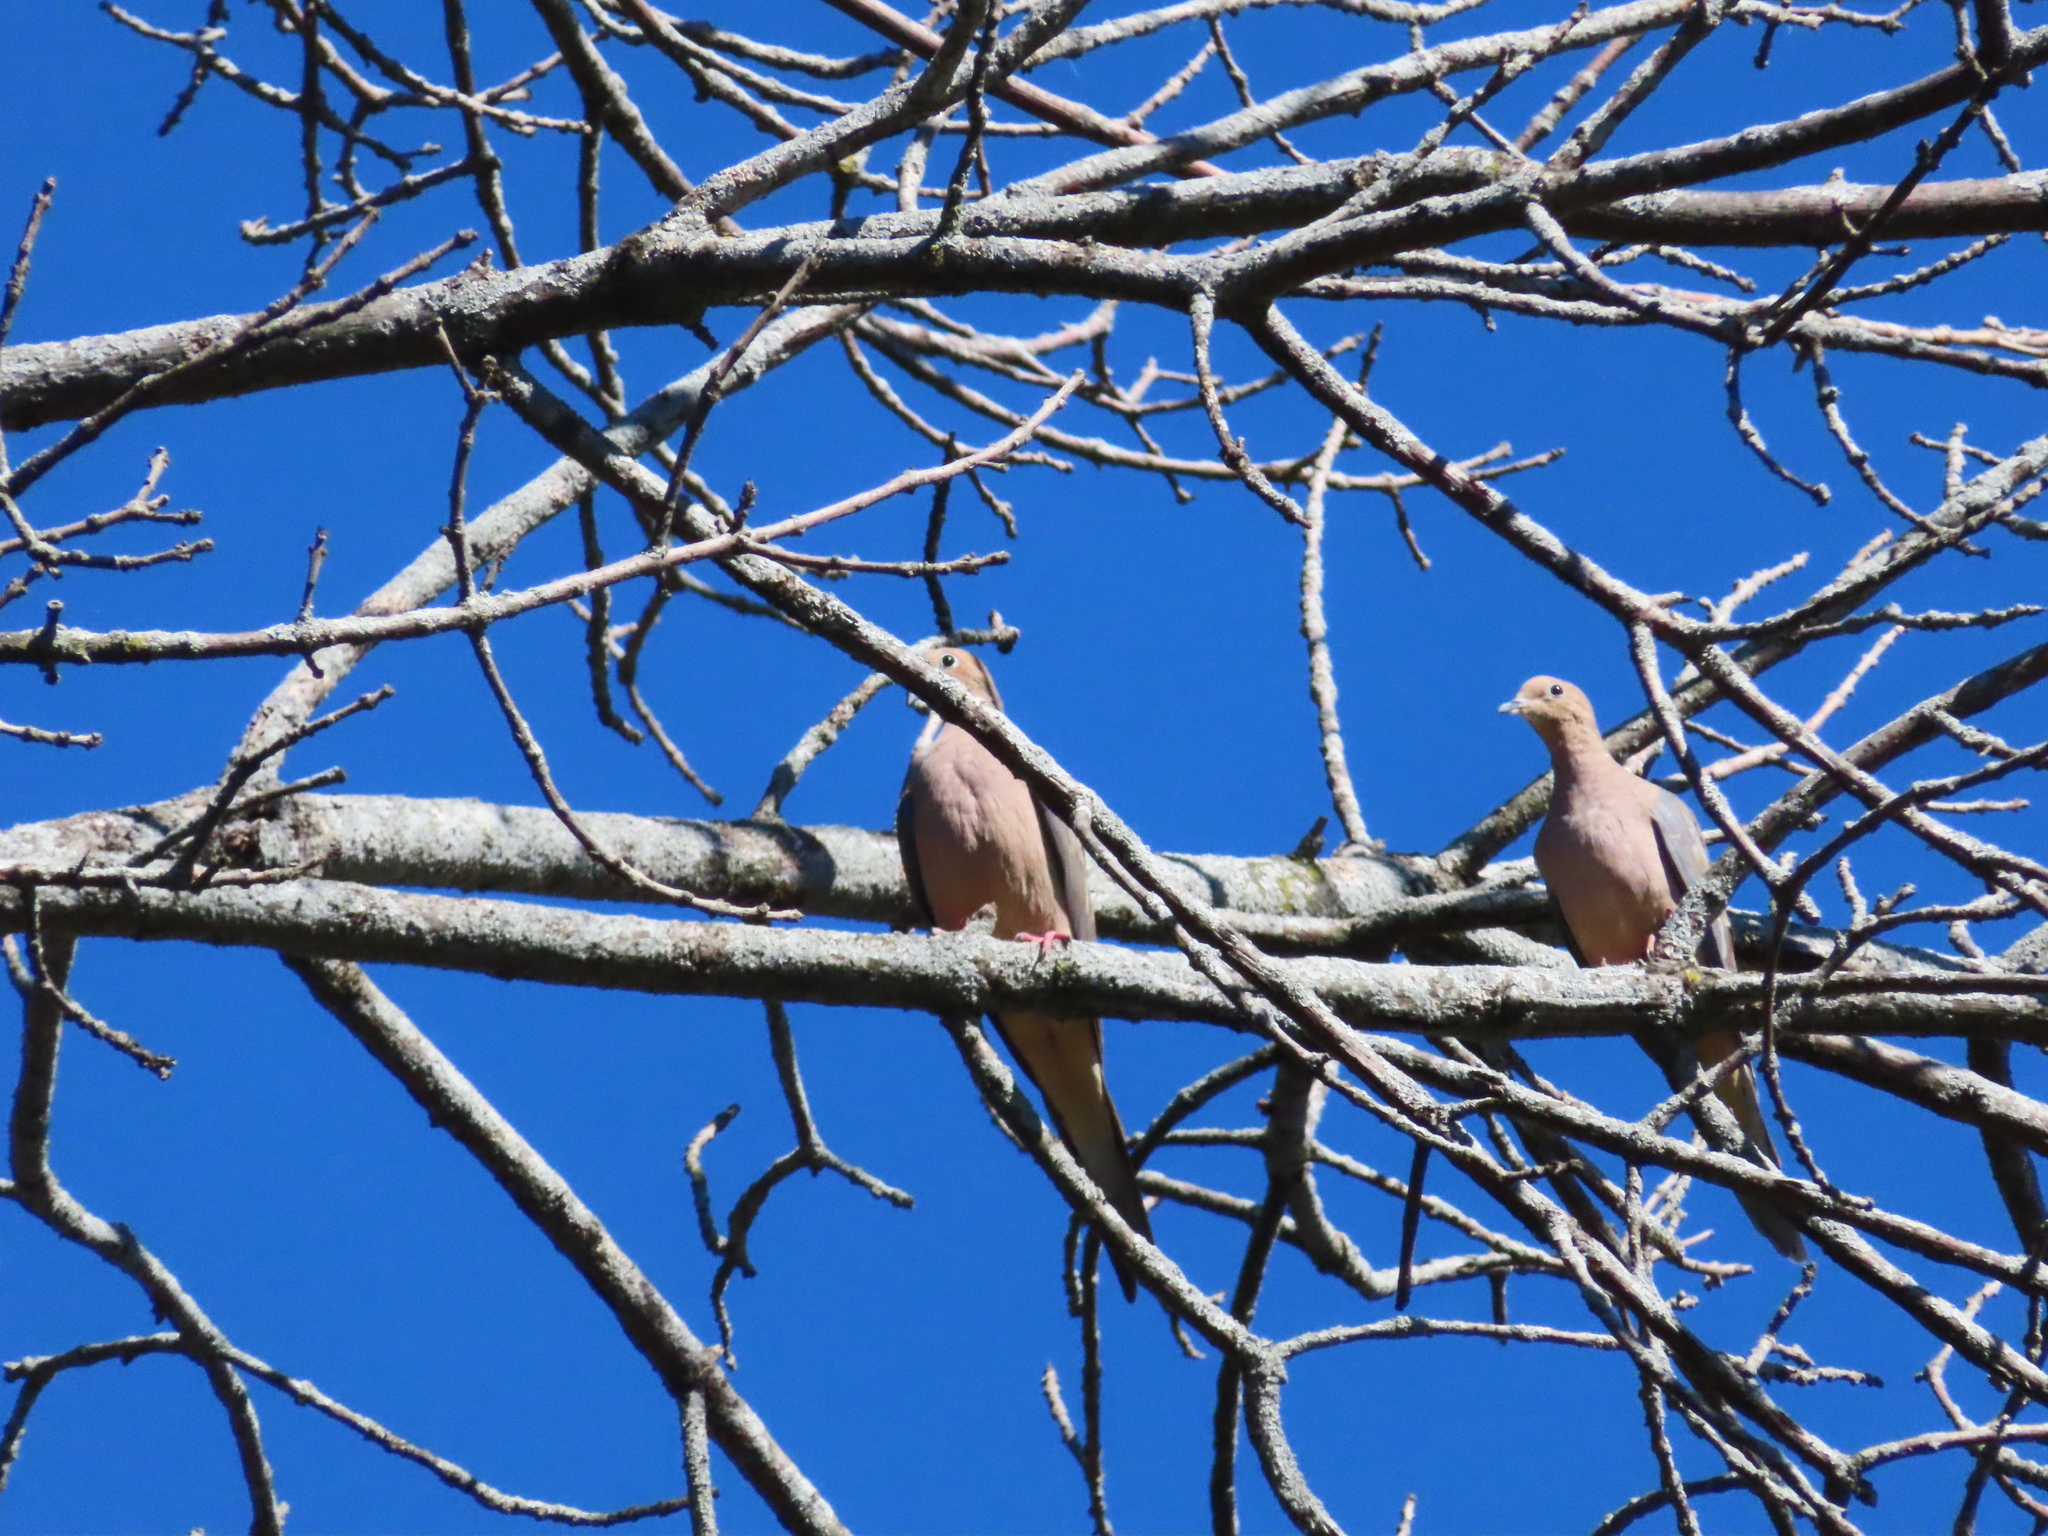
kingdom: Animalia
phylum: Chordata
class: Aves
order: Columbiformes
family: Columbidae
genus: Zenaida
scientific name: Zenaida macroura
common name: Mourning dove
